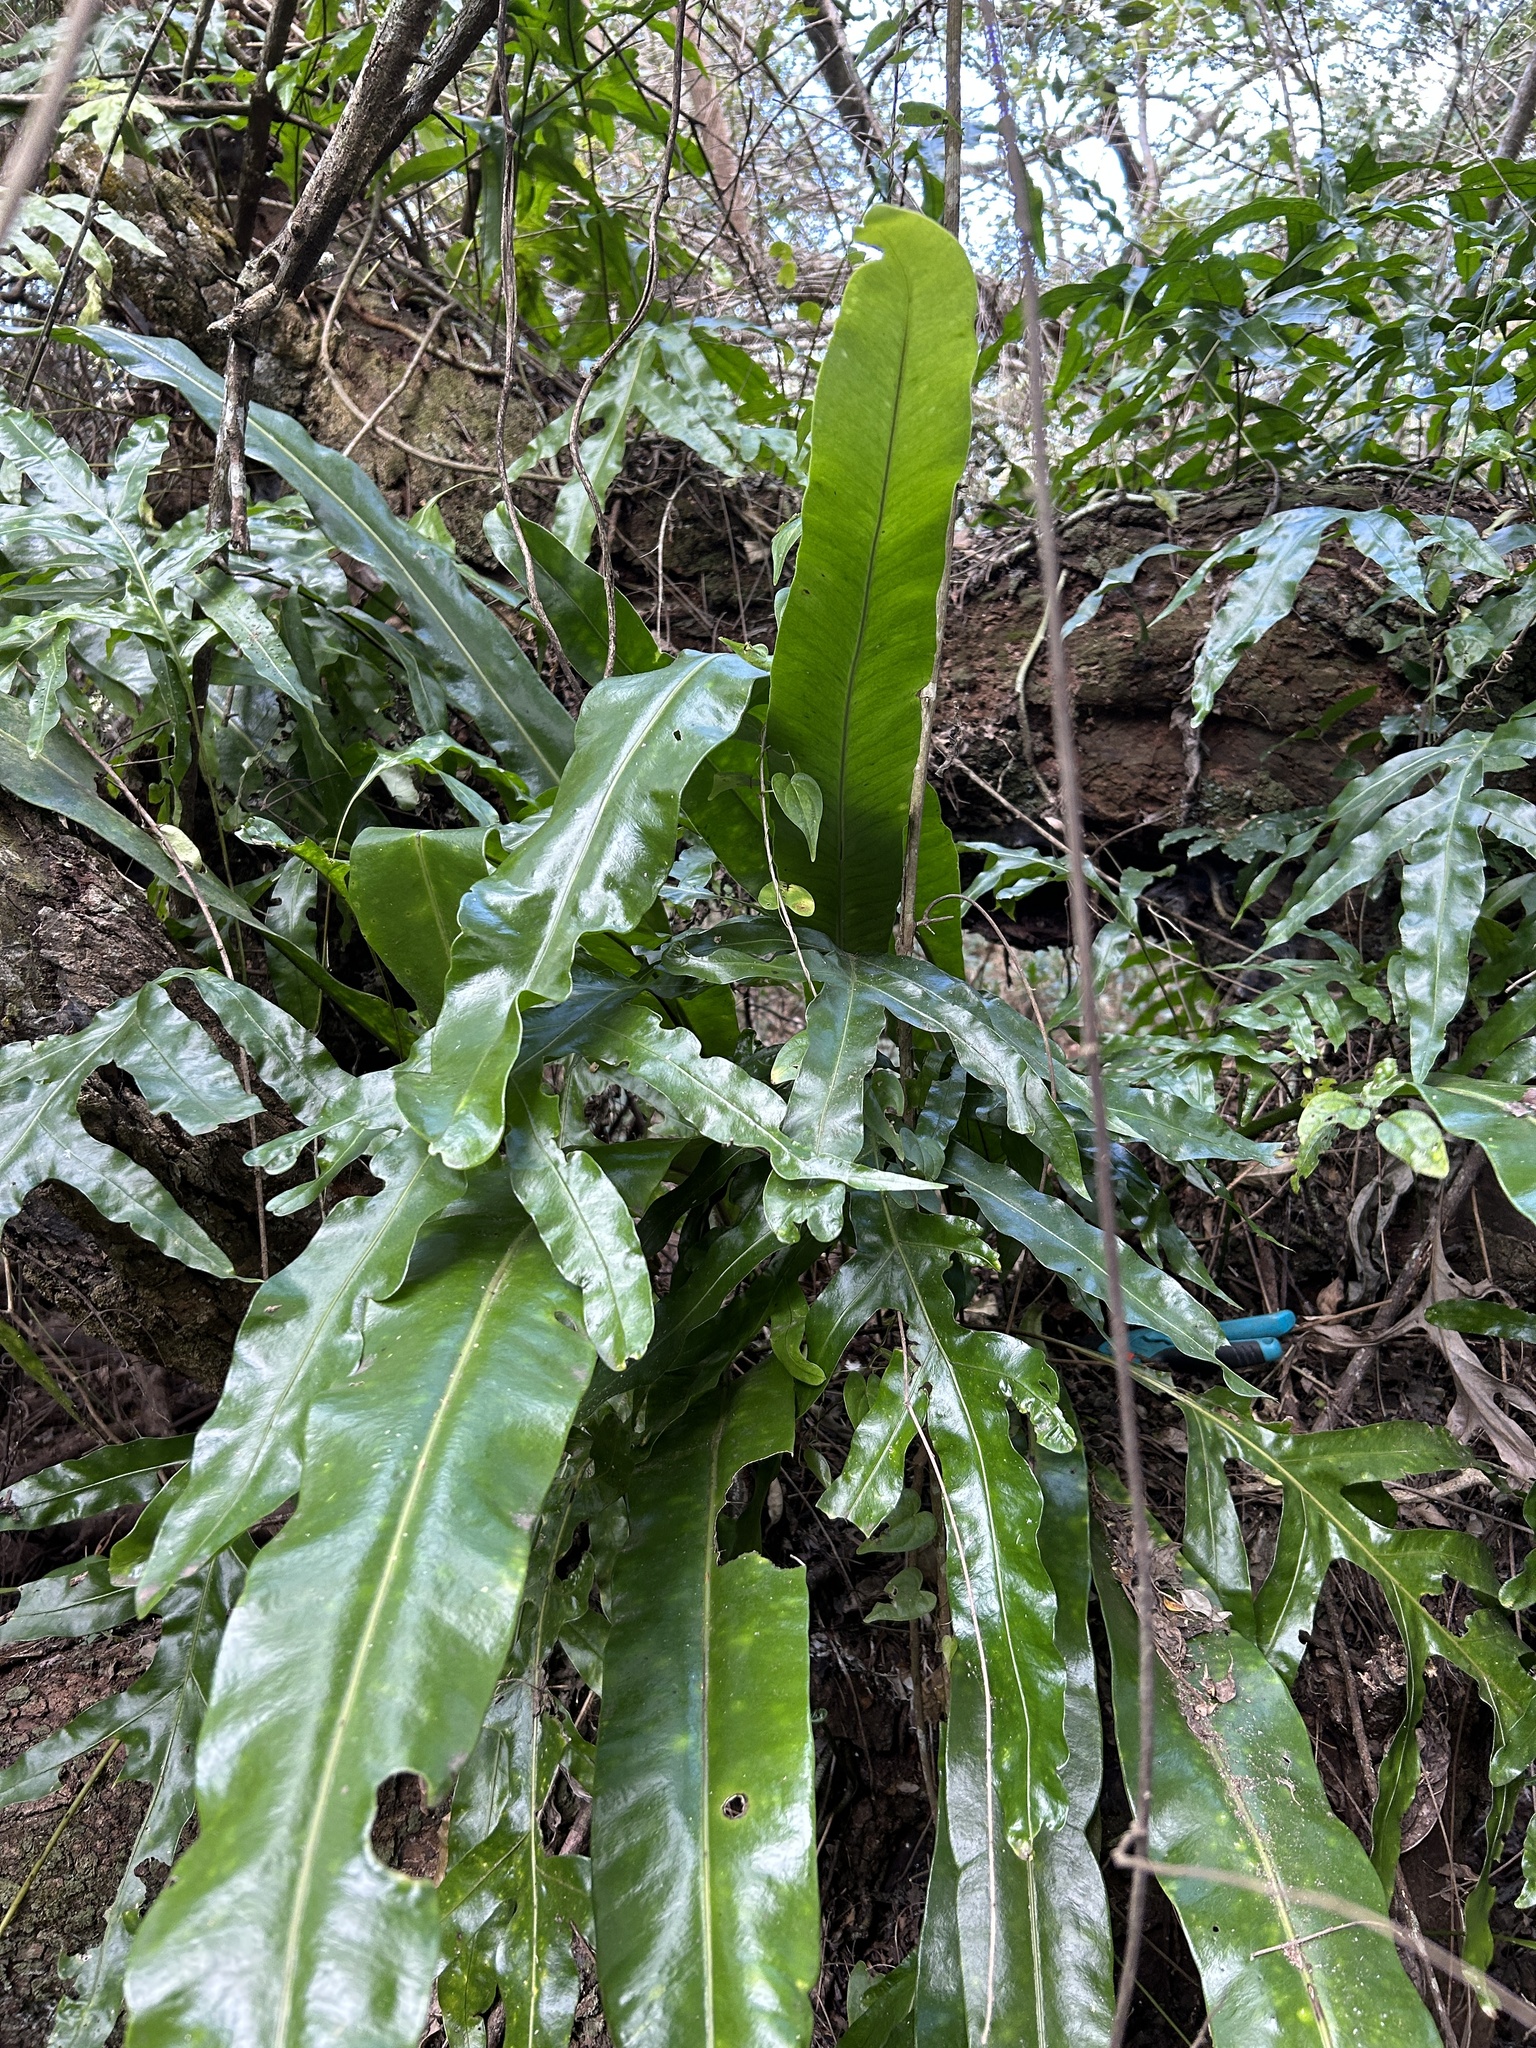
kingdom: Plantae
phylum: Tracheophyta
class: Polypodiopsida
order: Polypodiales
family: Polypodiaceae
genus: Microsorum
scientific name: Microsorum punctatum
